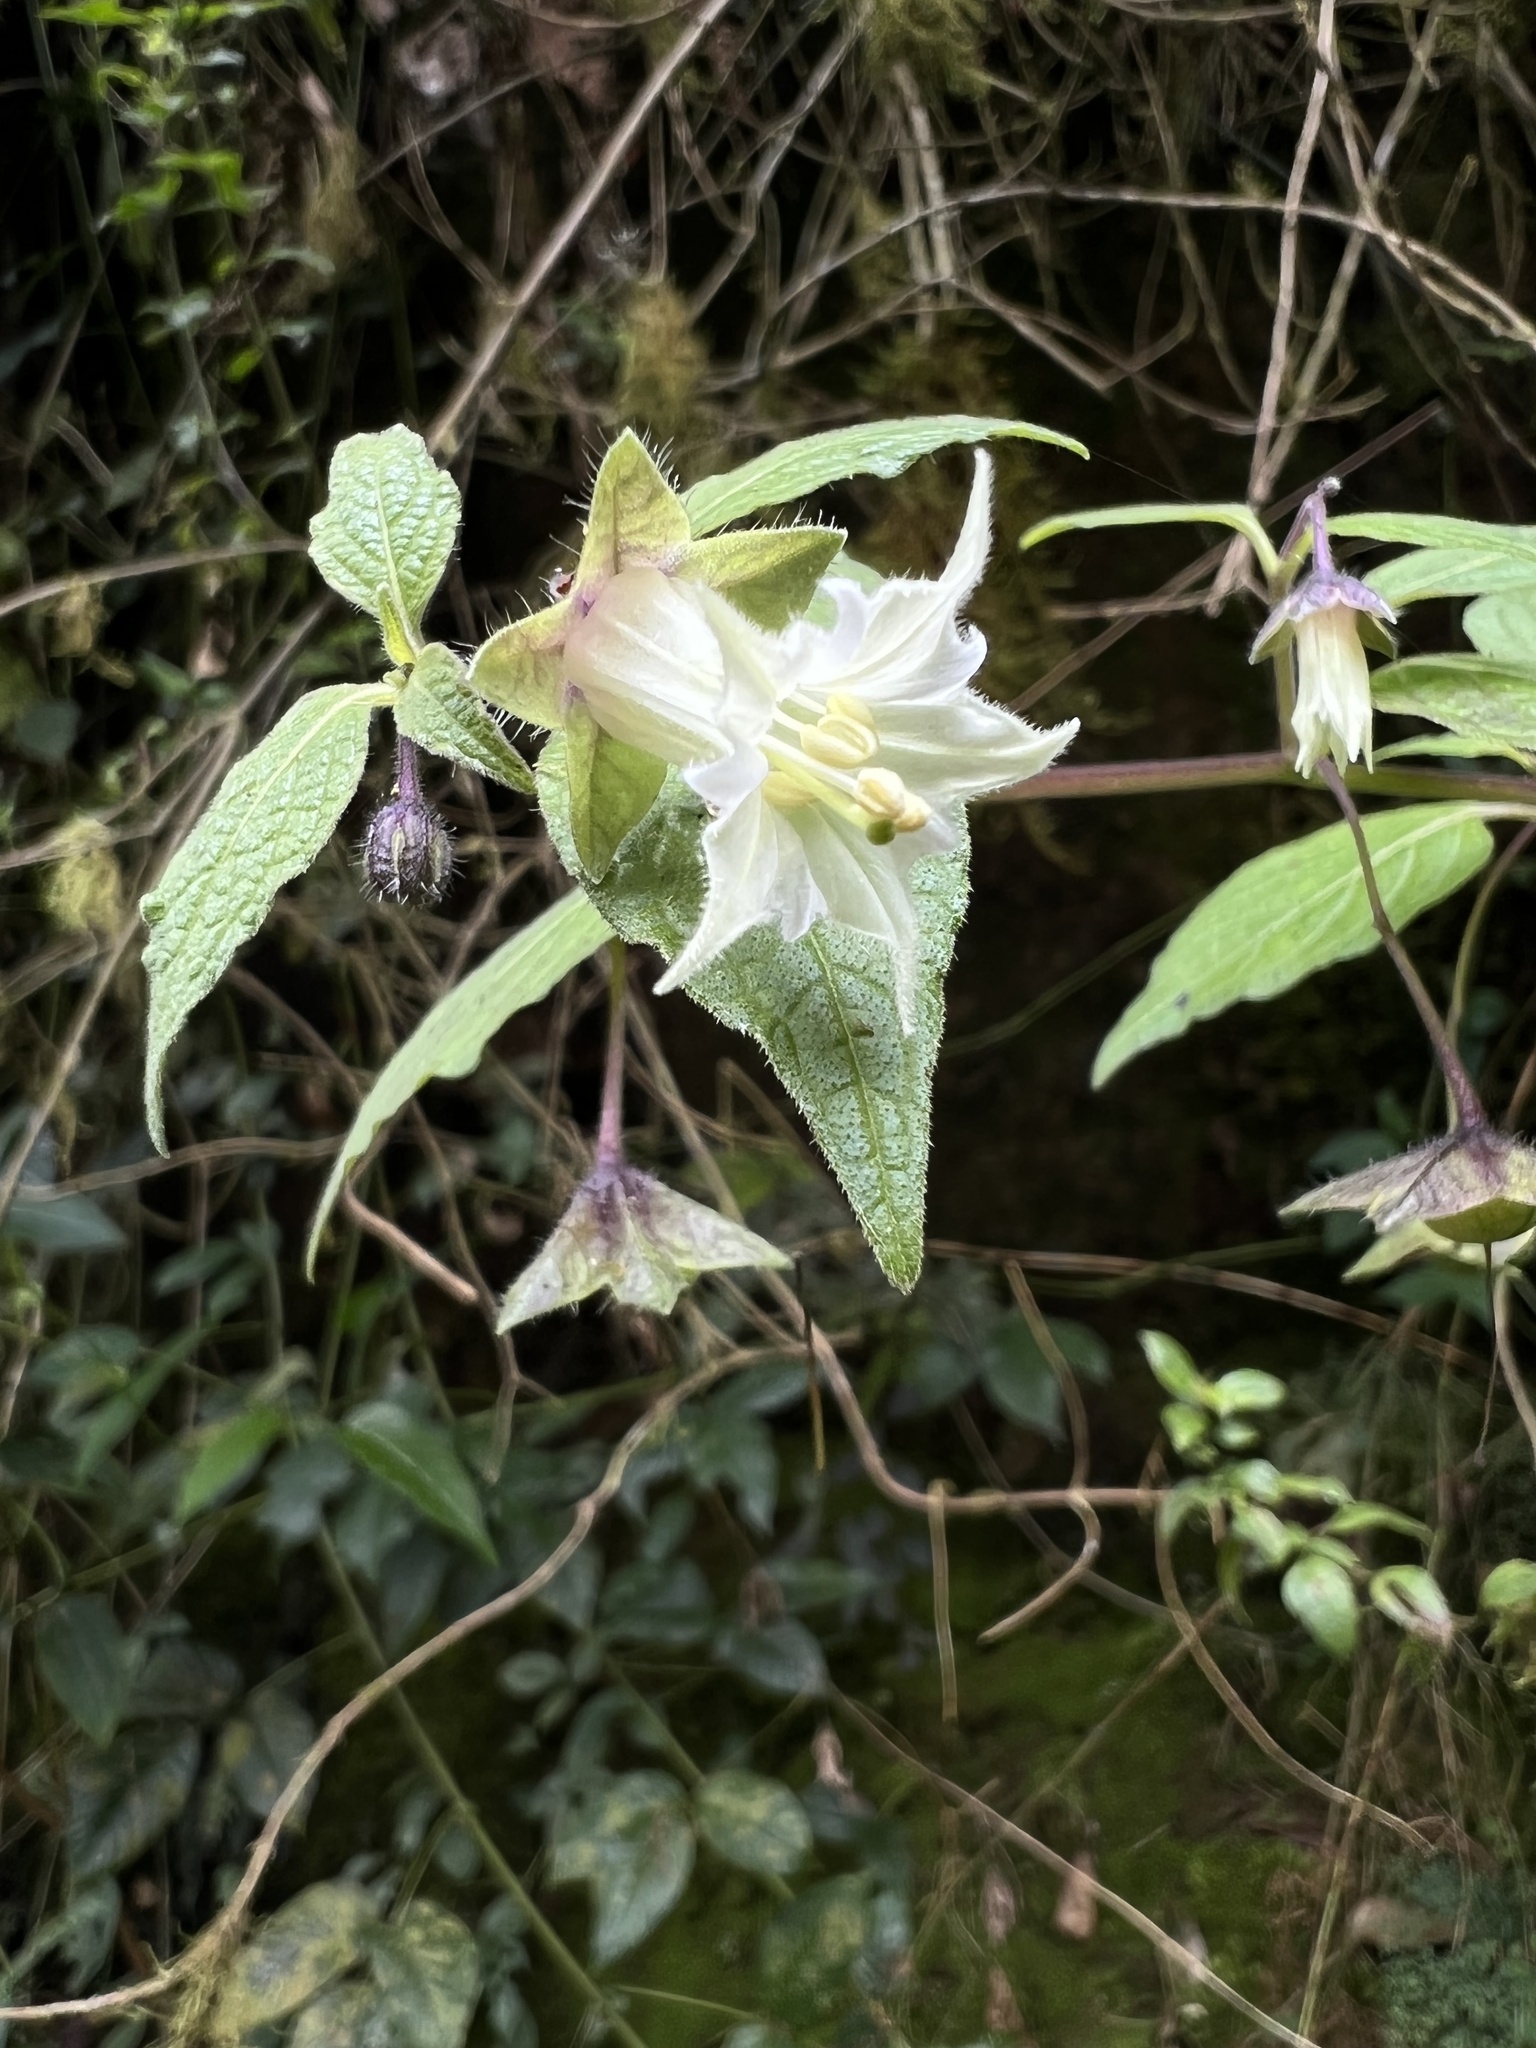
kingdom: Plantae
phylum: Tracheophyta
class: Magnoliopsida
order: Solanales
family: Solanaceae
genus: Jaltomata
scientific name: Jaltomata viridiflora
